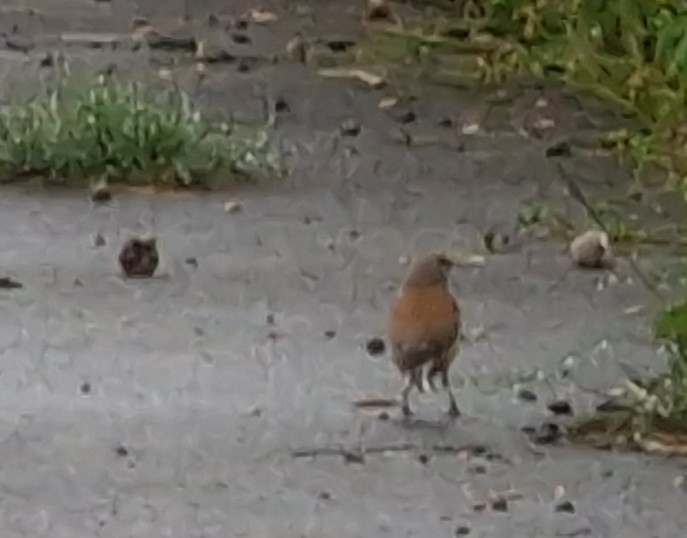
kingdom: Animalia
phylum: Chordata
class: Aves
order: Passeriformes
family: Fringillidae
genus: Linaria
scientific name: Linaria cannabina
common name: Common linnet
